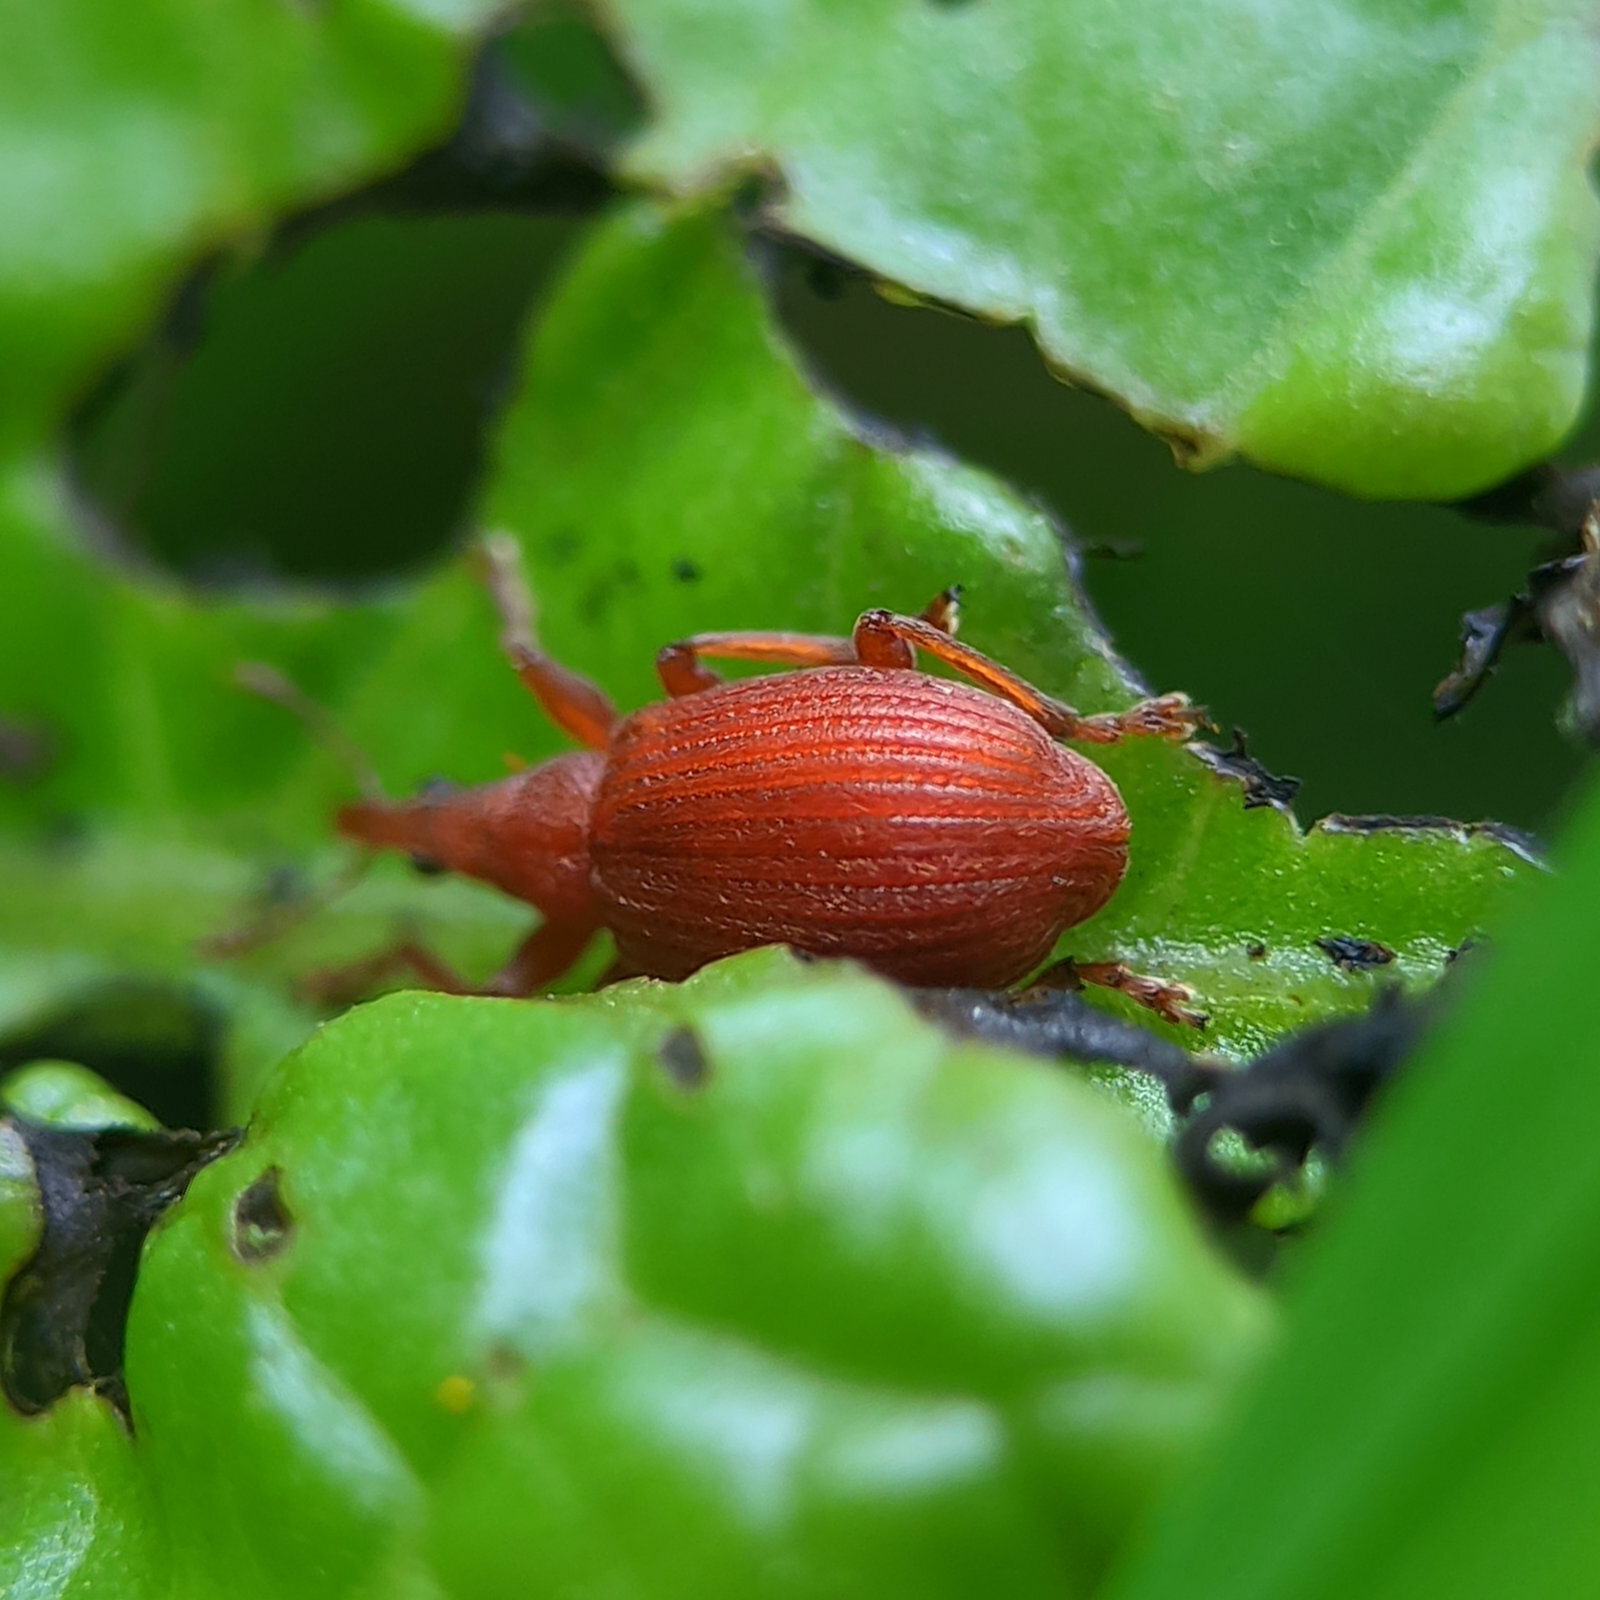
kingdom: Animalia
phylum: Arthropoda
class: Insecta
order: Coleoptera
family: Apionidae
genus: Apion
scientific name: Apion frumentarium
